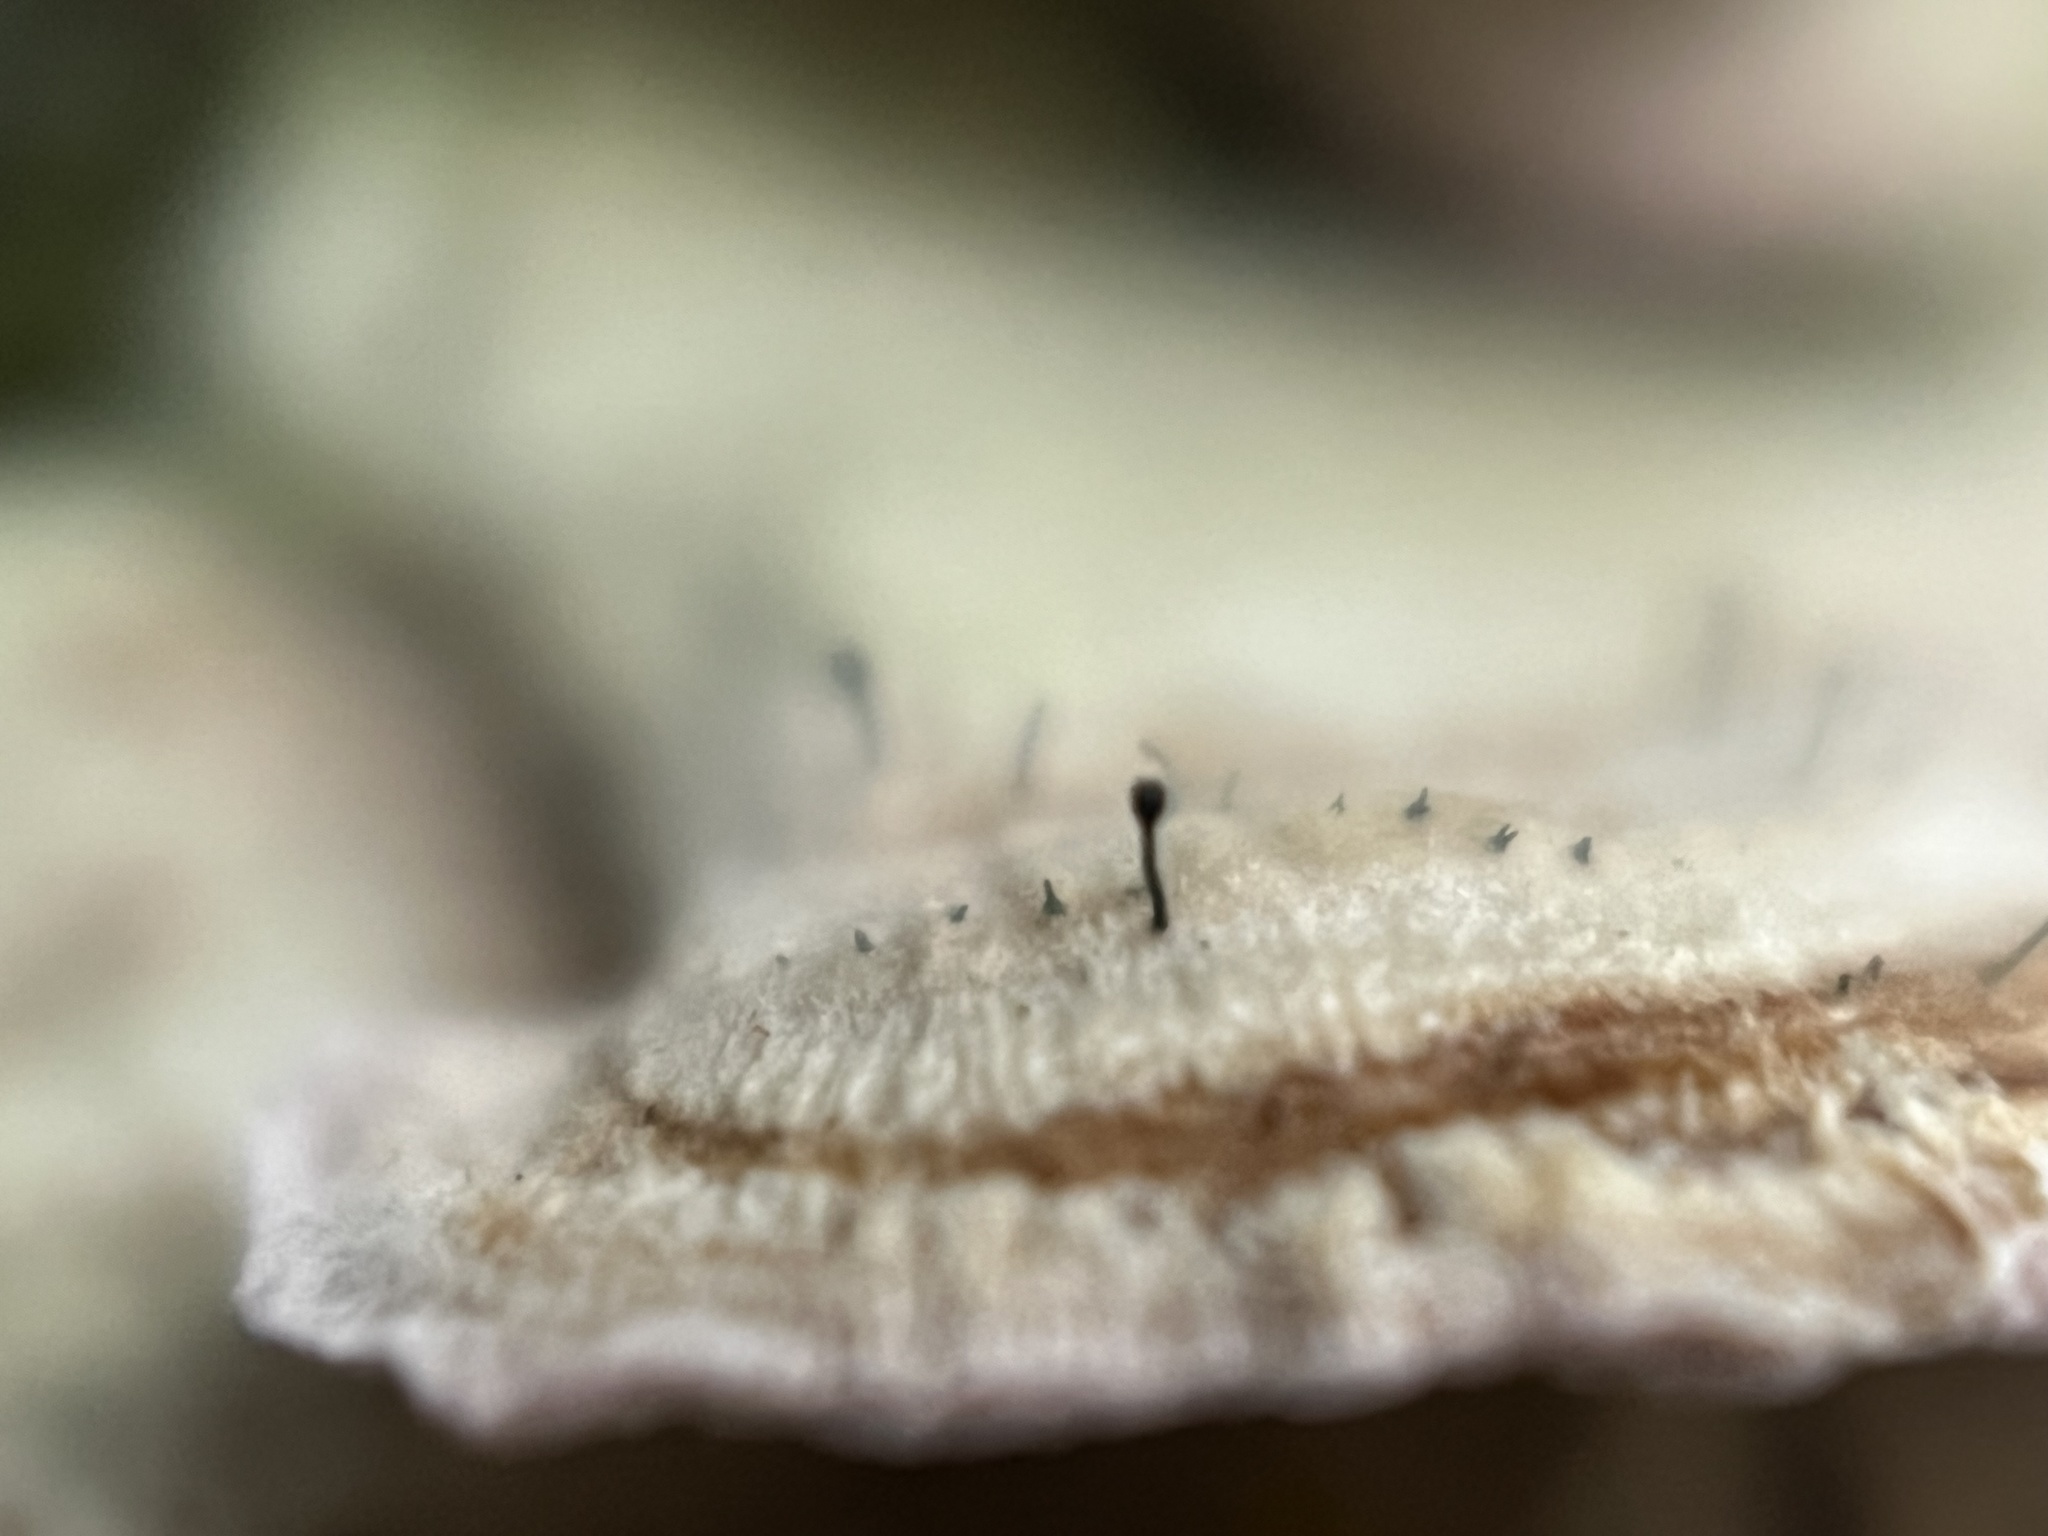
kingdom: Fungi
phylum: Ascomycota
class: Eurotiomycetes
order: Mycocaliciales
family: Mycocaliciaceae
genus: Phaeocalicium
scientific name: Phaeocalicium polyporaeum
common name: Fairy pins
